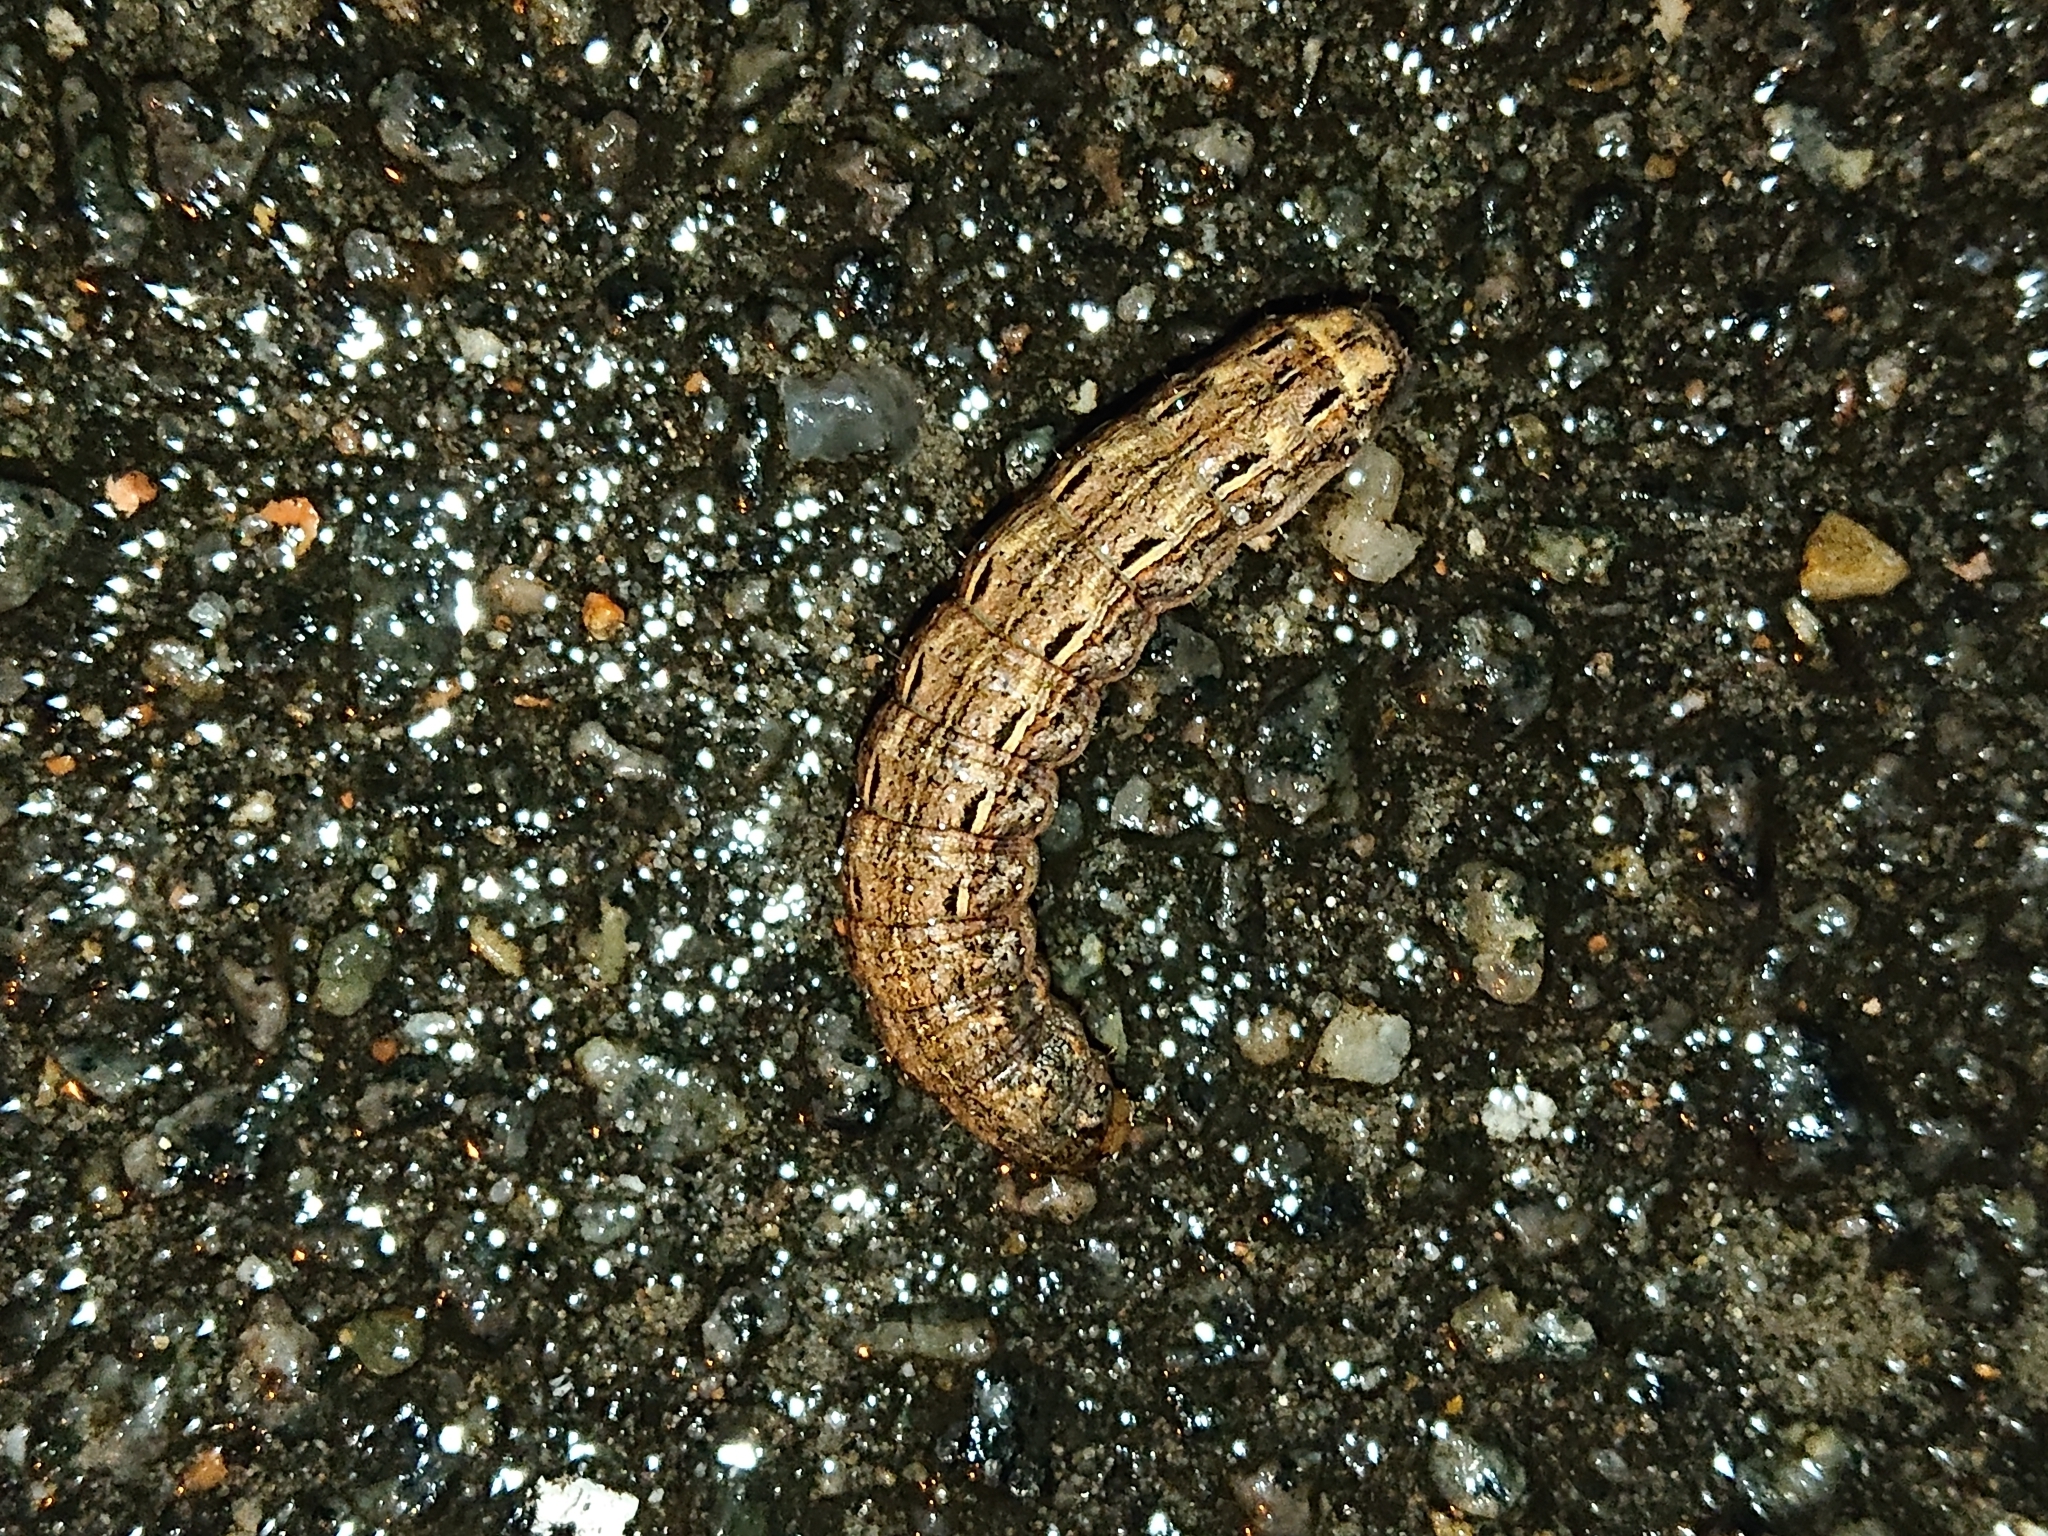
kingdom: Animalia
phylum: Arthropoda
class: Insecta
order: Lepidoptera
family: Noctuidae
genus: Noctua
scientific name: Noctua pronuba
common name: Large yellow underwing
